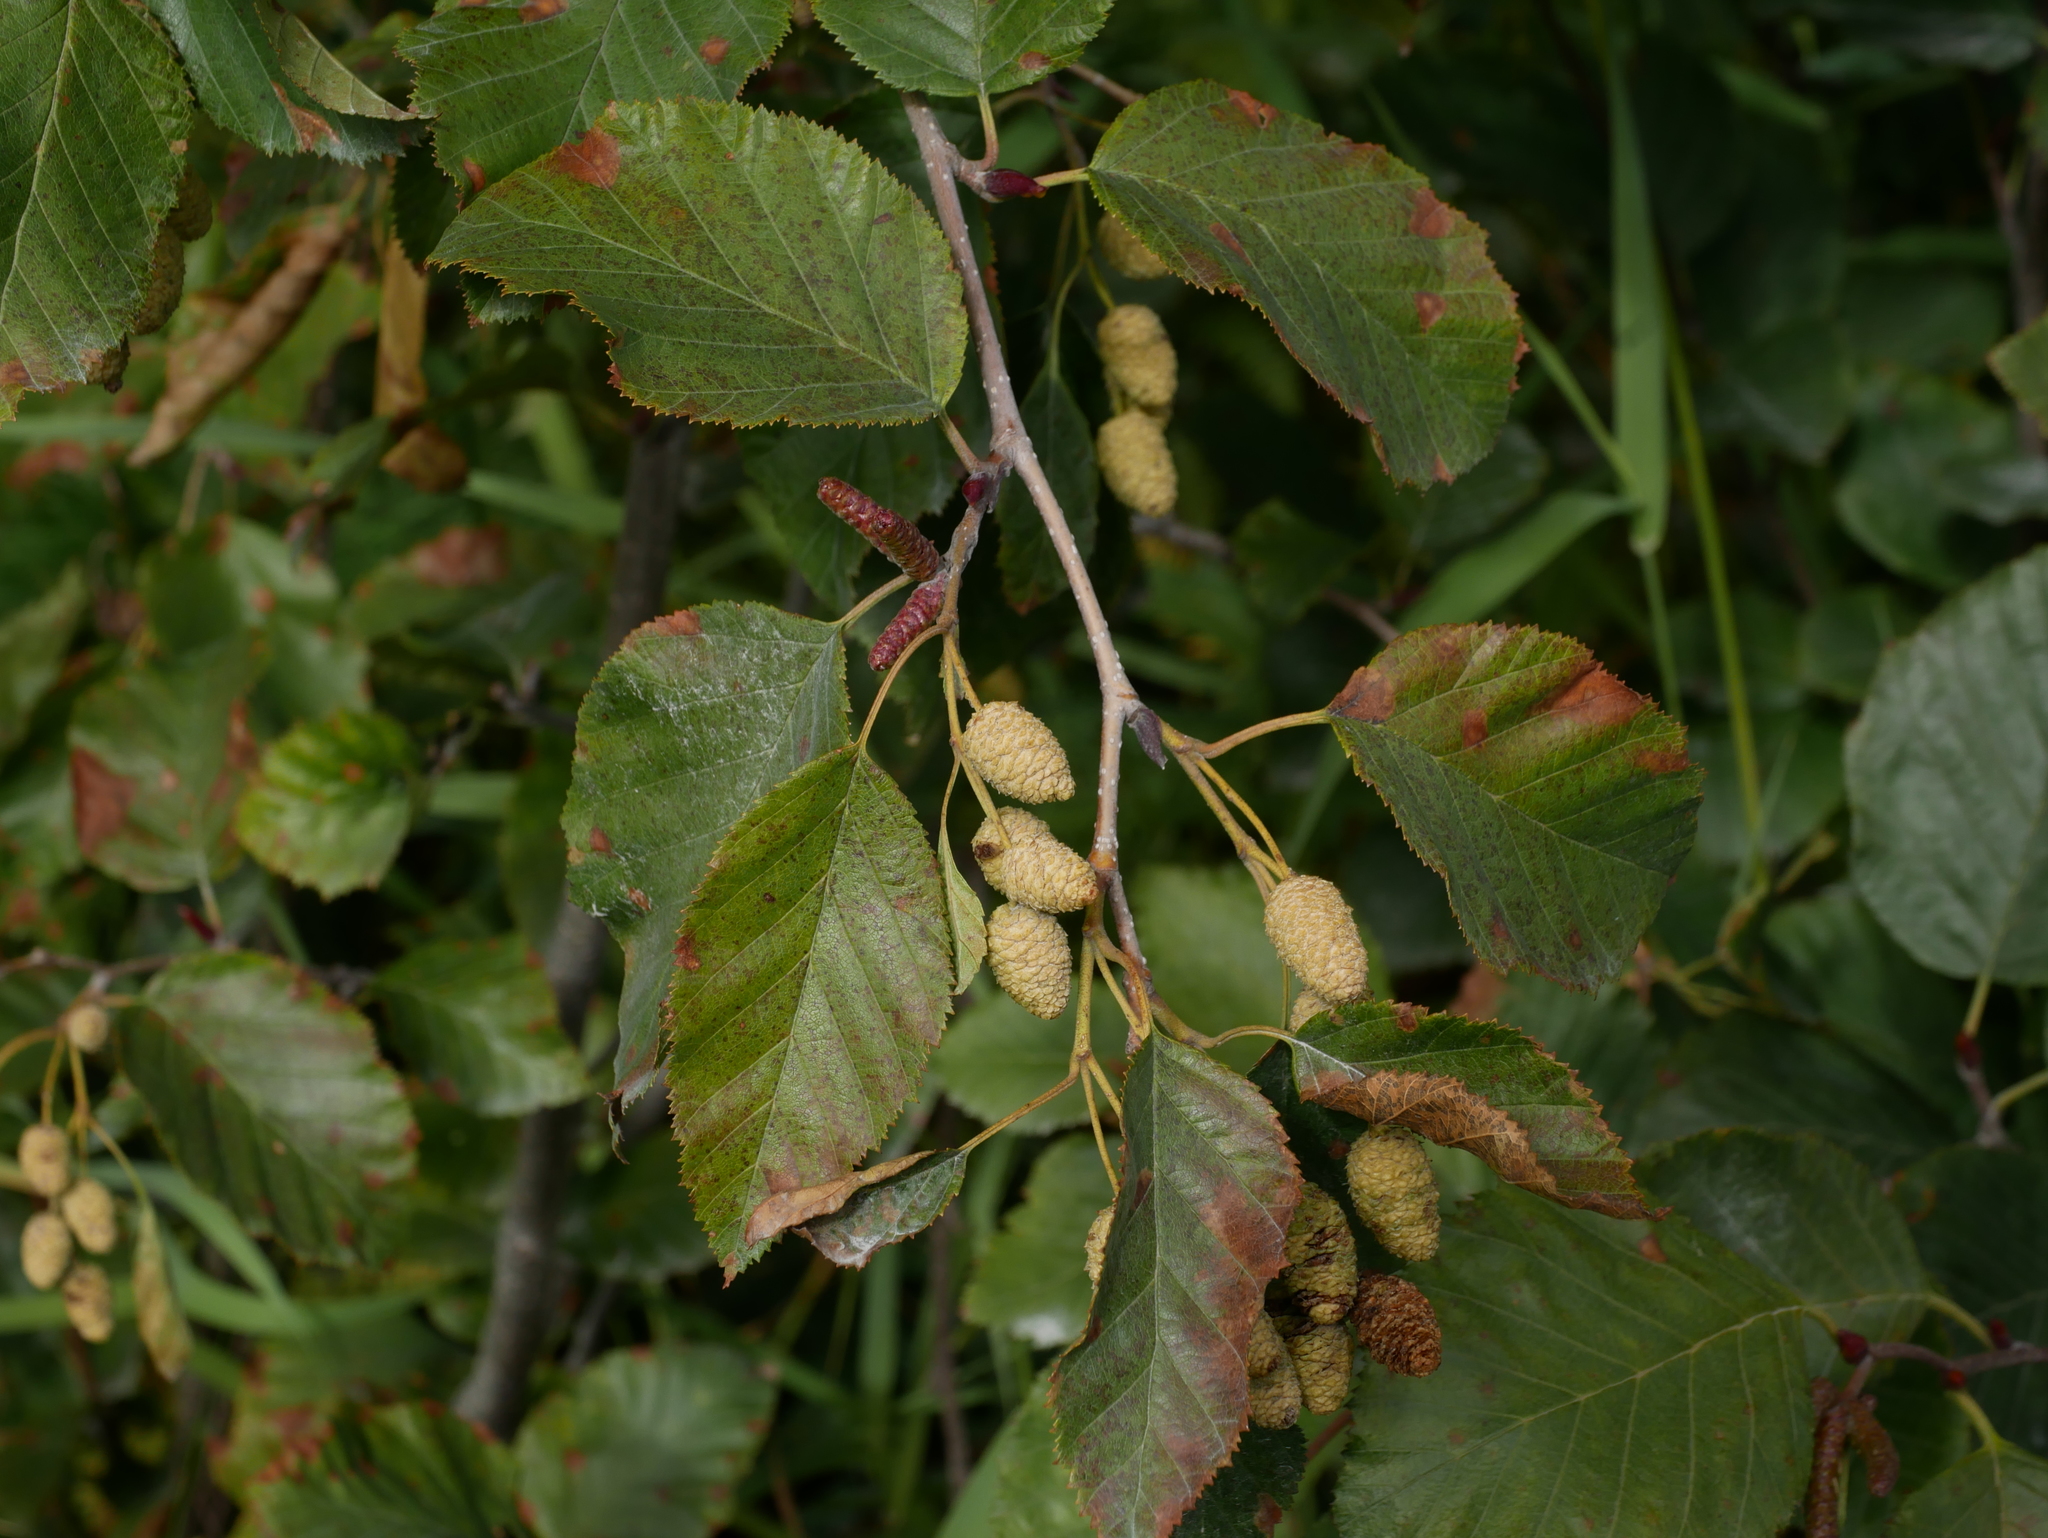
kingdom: Plantae
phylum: Tracheophyta
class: Magnoliopsida
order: Fagales
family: Betulaceae
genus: Alnus
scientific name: Alnus alnobetula
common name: Green alder
